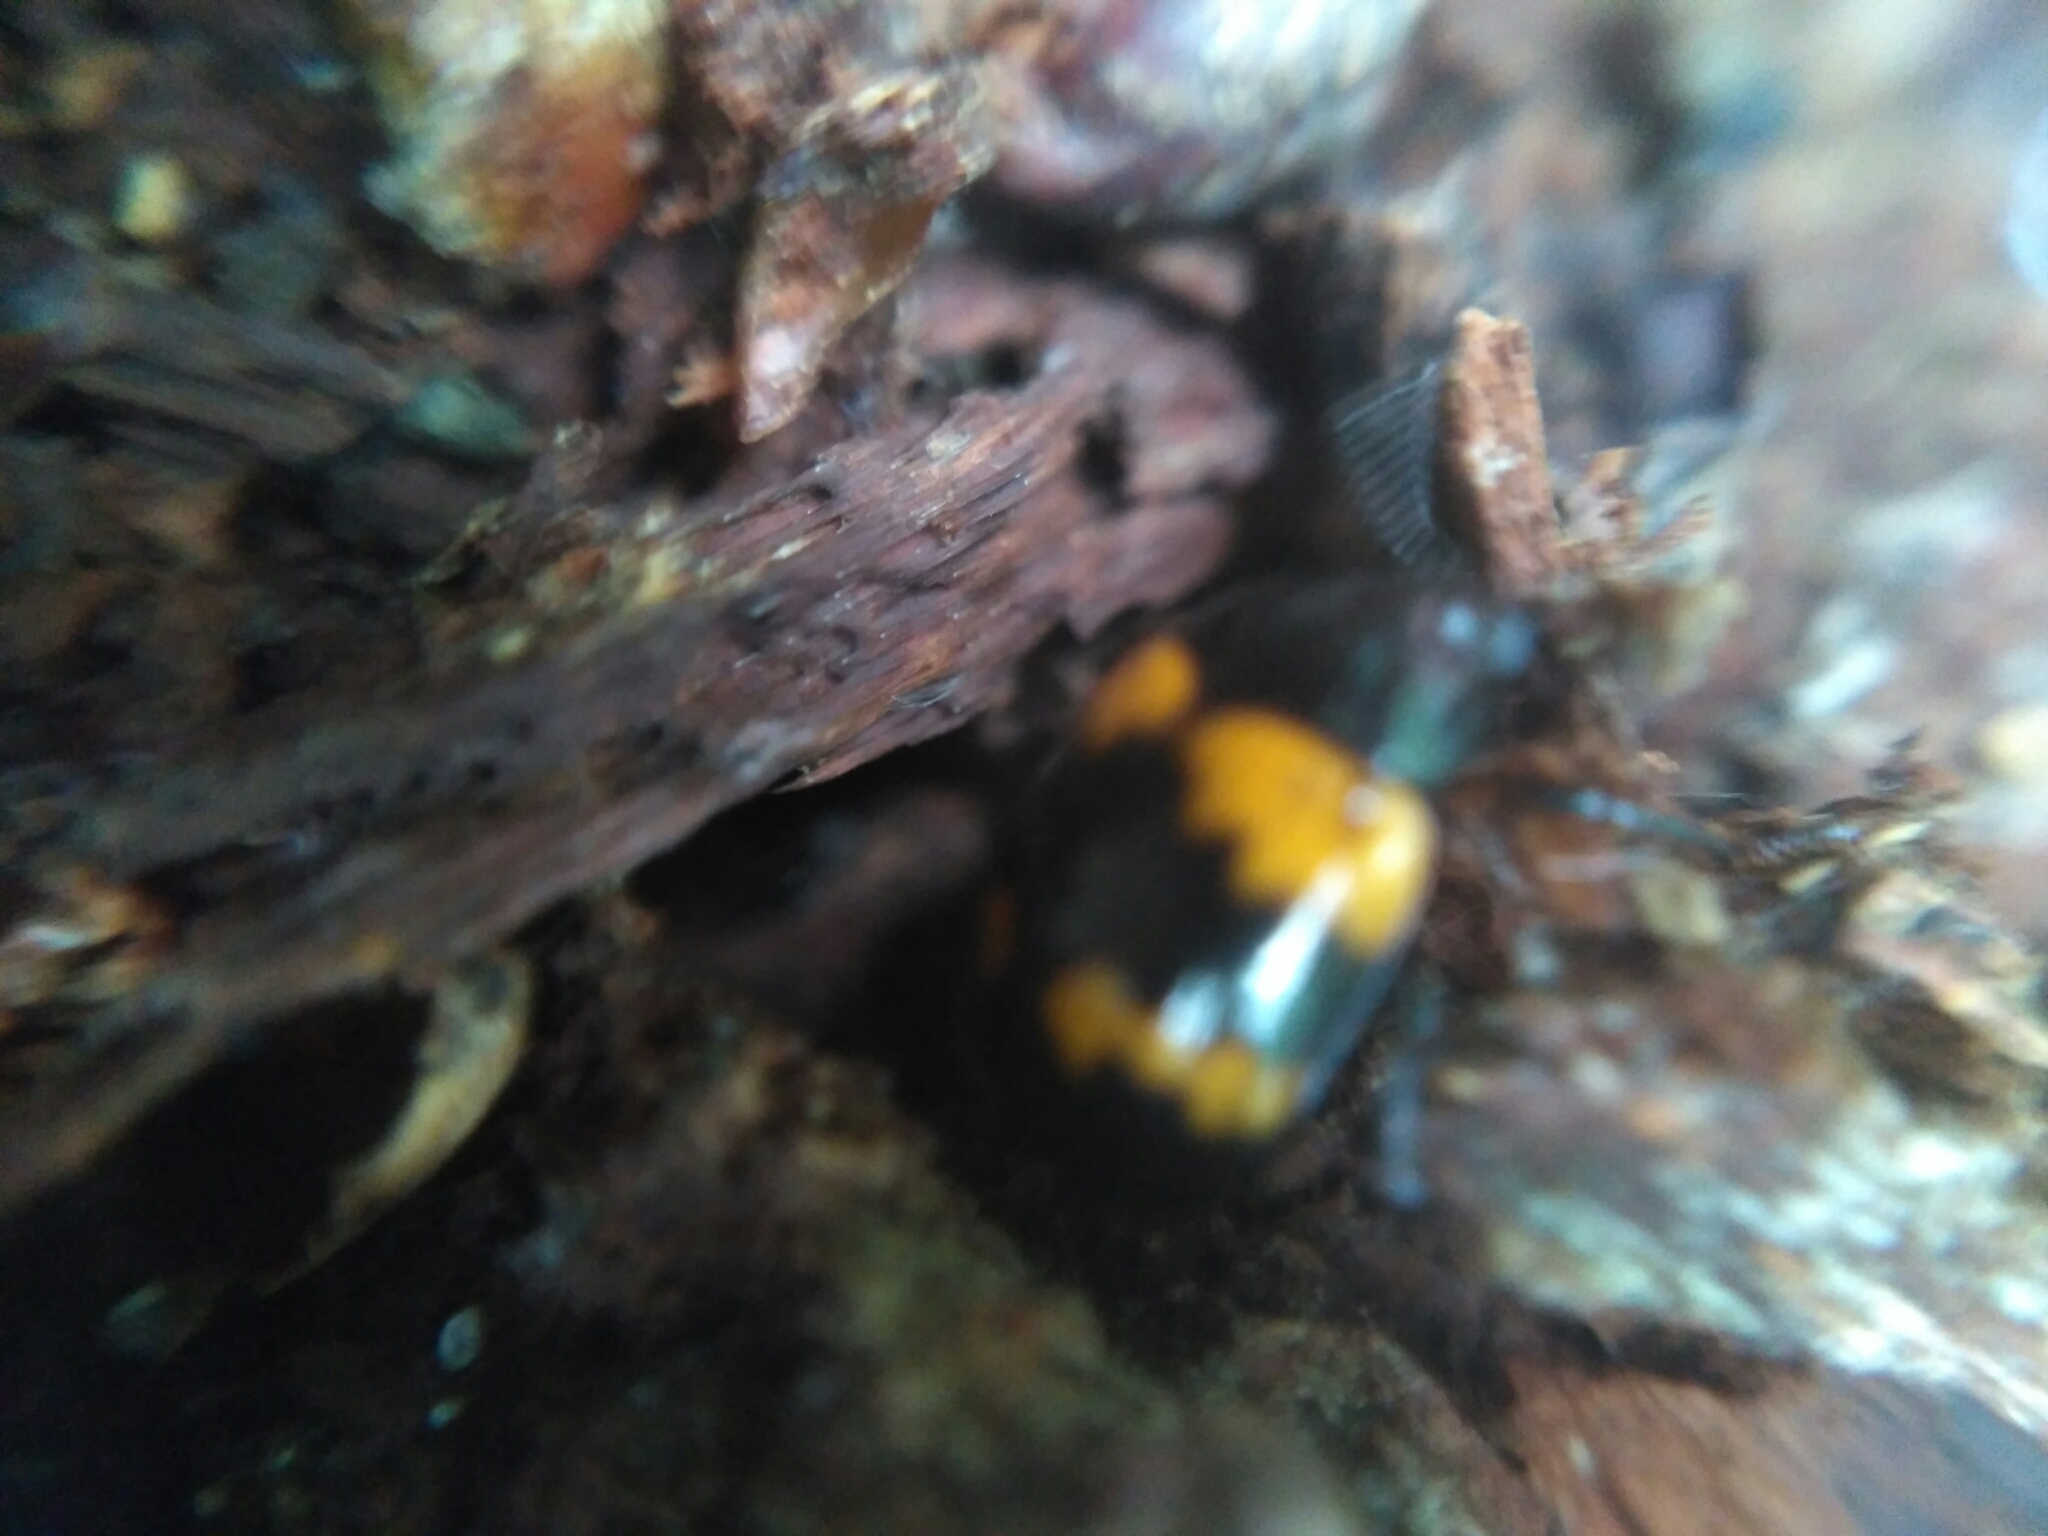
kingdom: Animalia
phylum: Arthropoda
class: Insecta
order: Coleoptera
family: Tenebrionidae
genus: Diaperis
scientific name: Diaperis boleti
